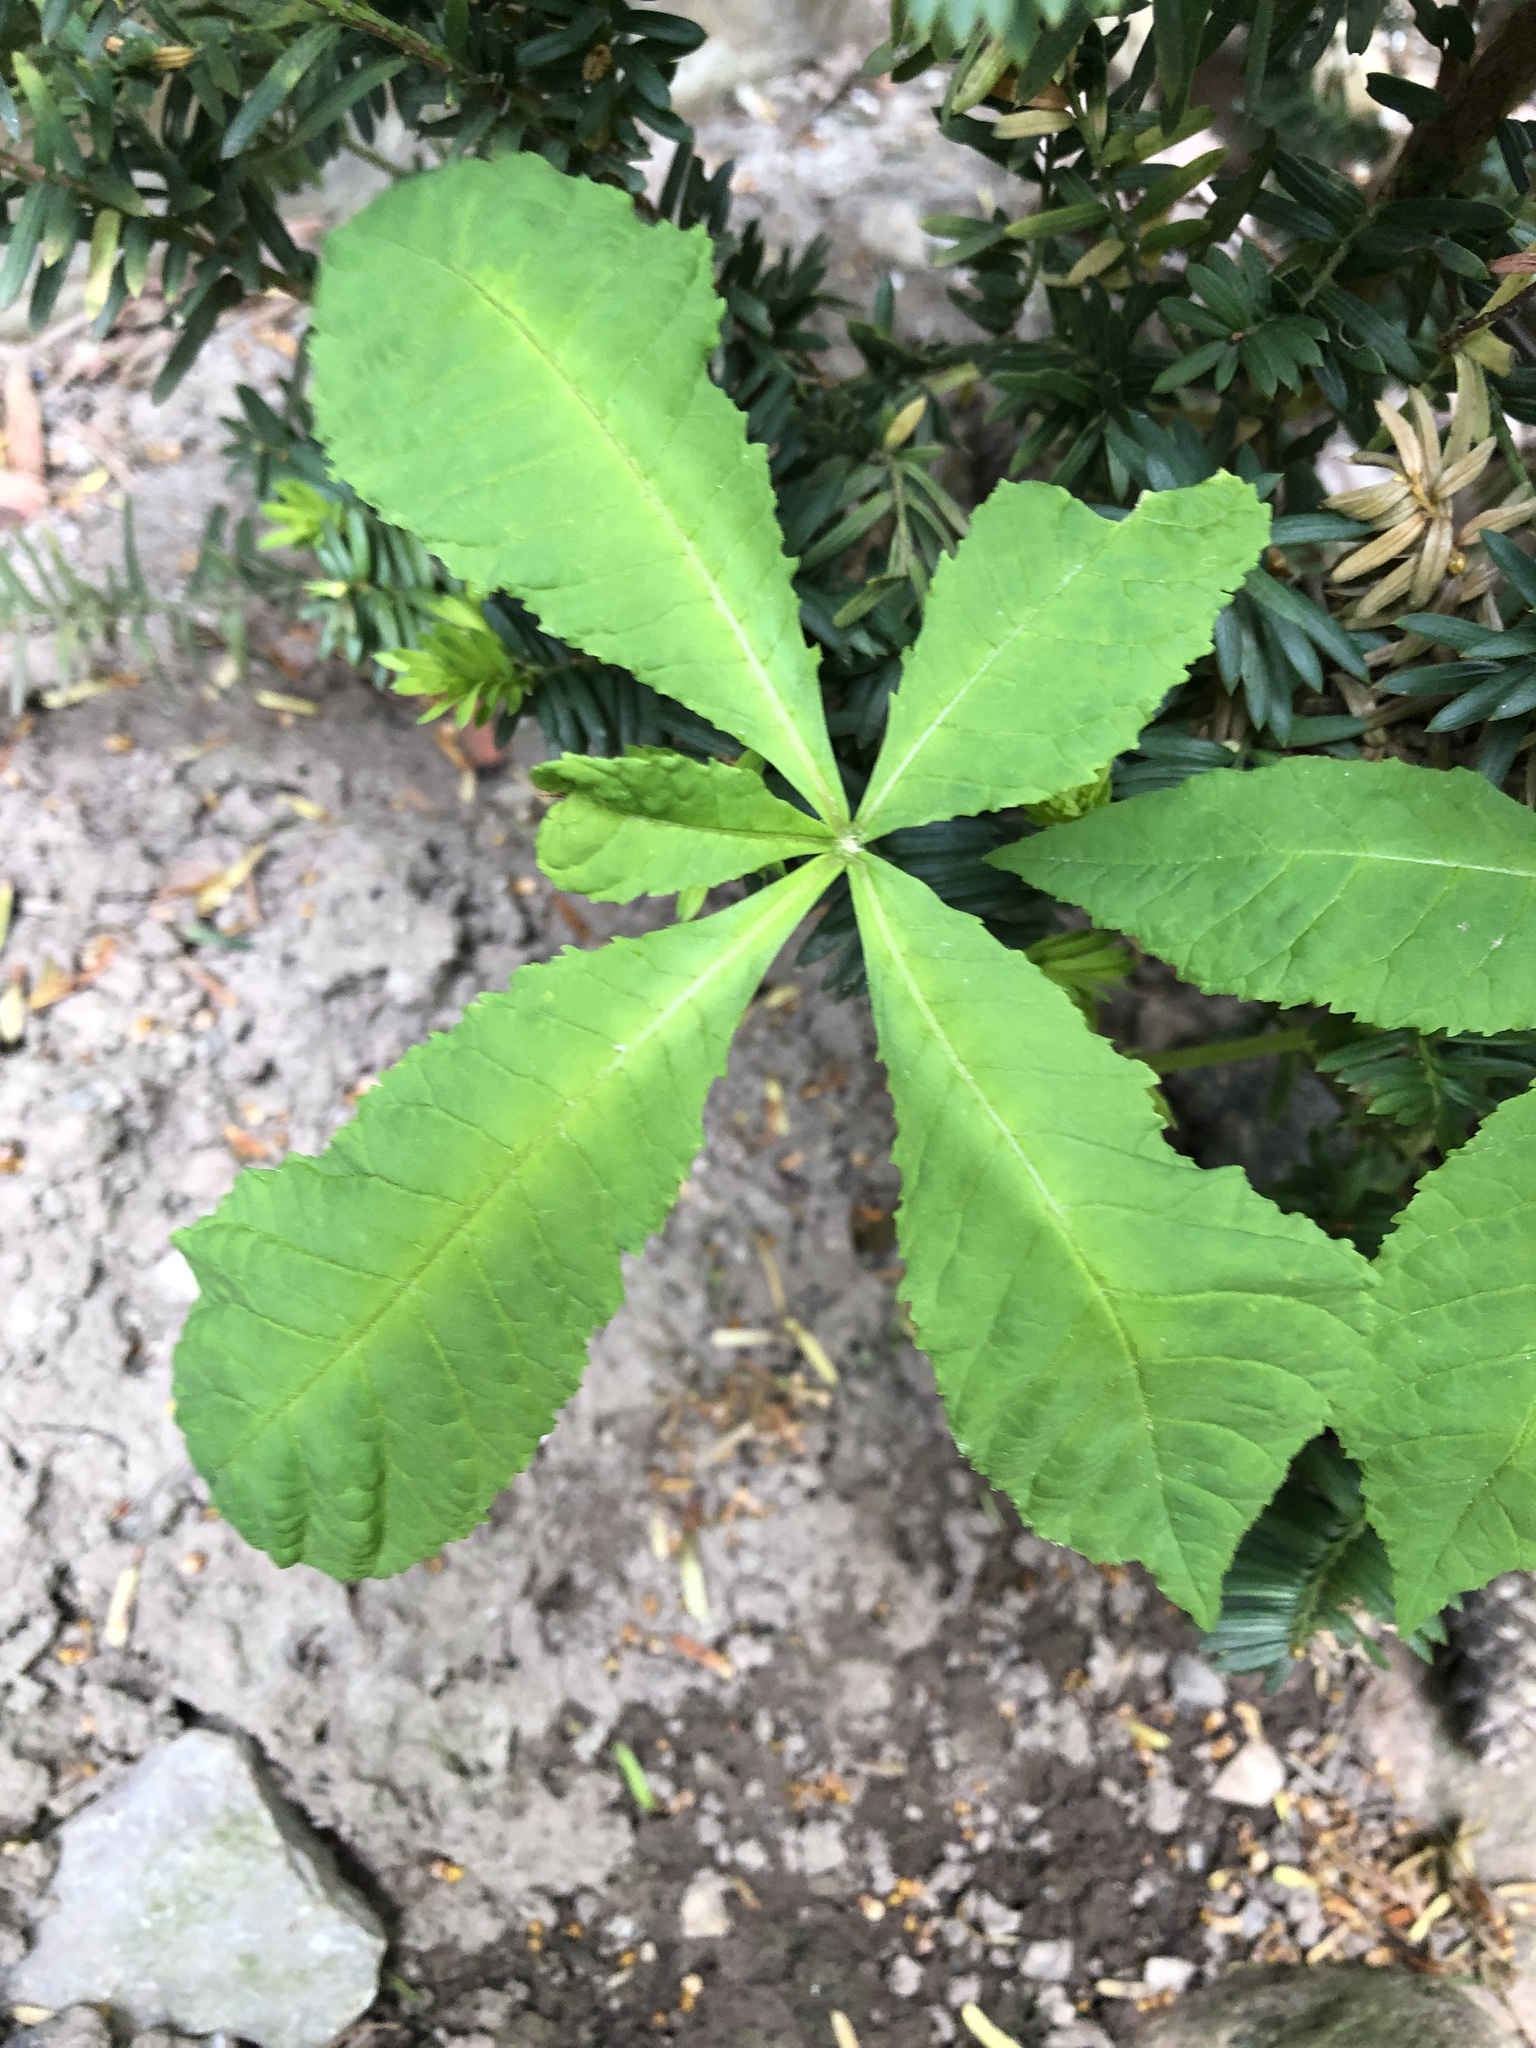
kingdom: Plantae
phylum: Tracheophyta
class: Magnoliopsida
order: Sapindales
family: Sapindaceae
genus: Aesculus
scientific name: Aesculus hippocastanum
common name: Horse-chestnut
